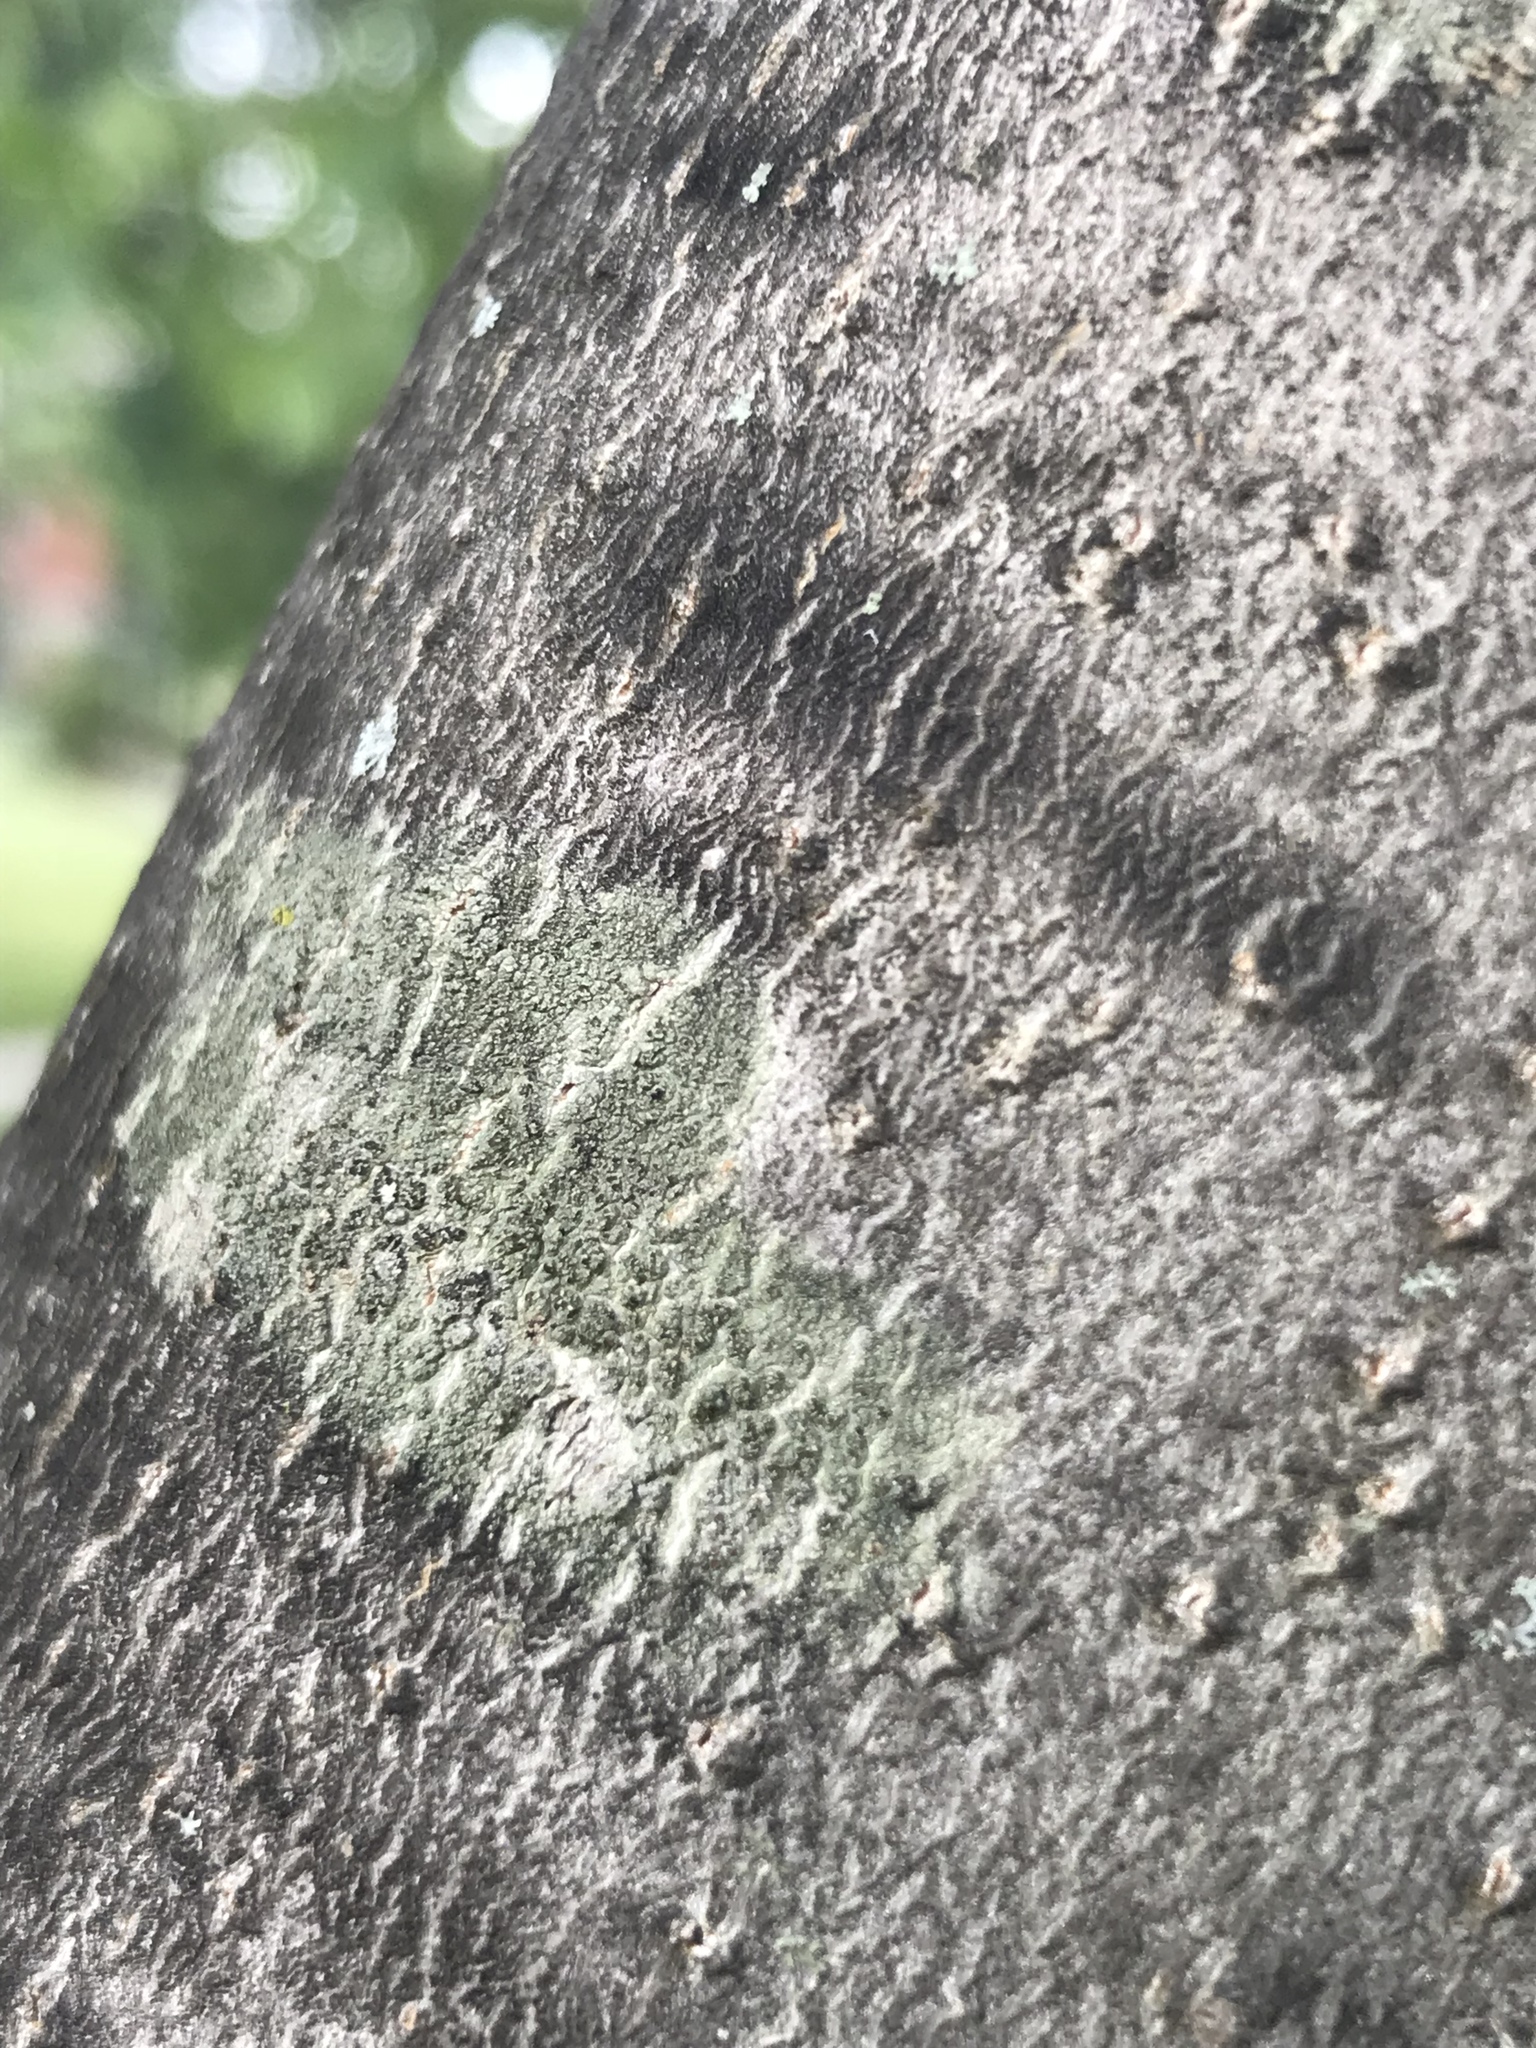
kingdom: Fungi
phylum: Ascomycota
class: Lecanoromycetes
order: Lecanorales
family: Lecanoraceae
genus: Traponora
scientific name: Traponora varians
